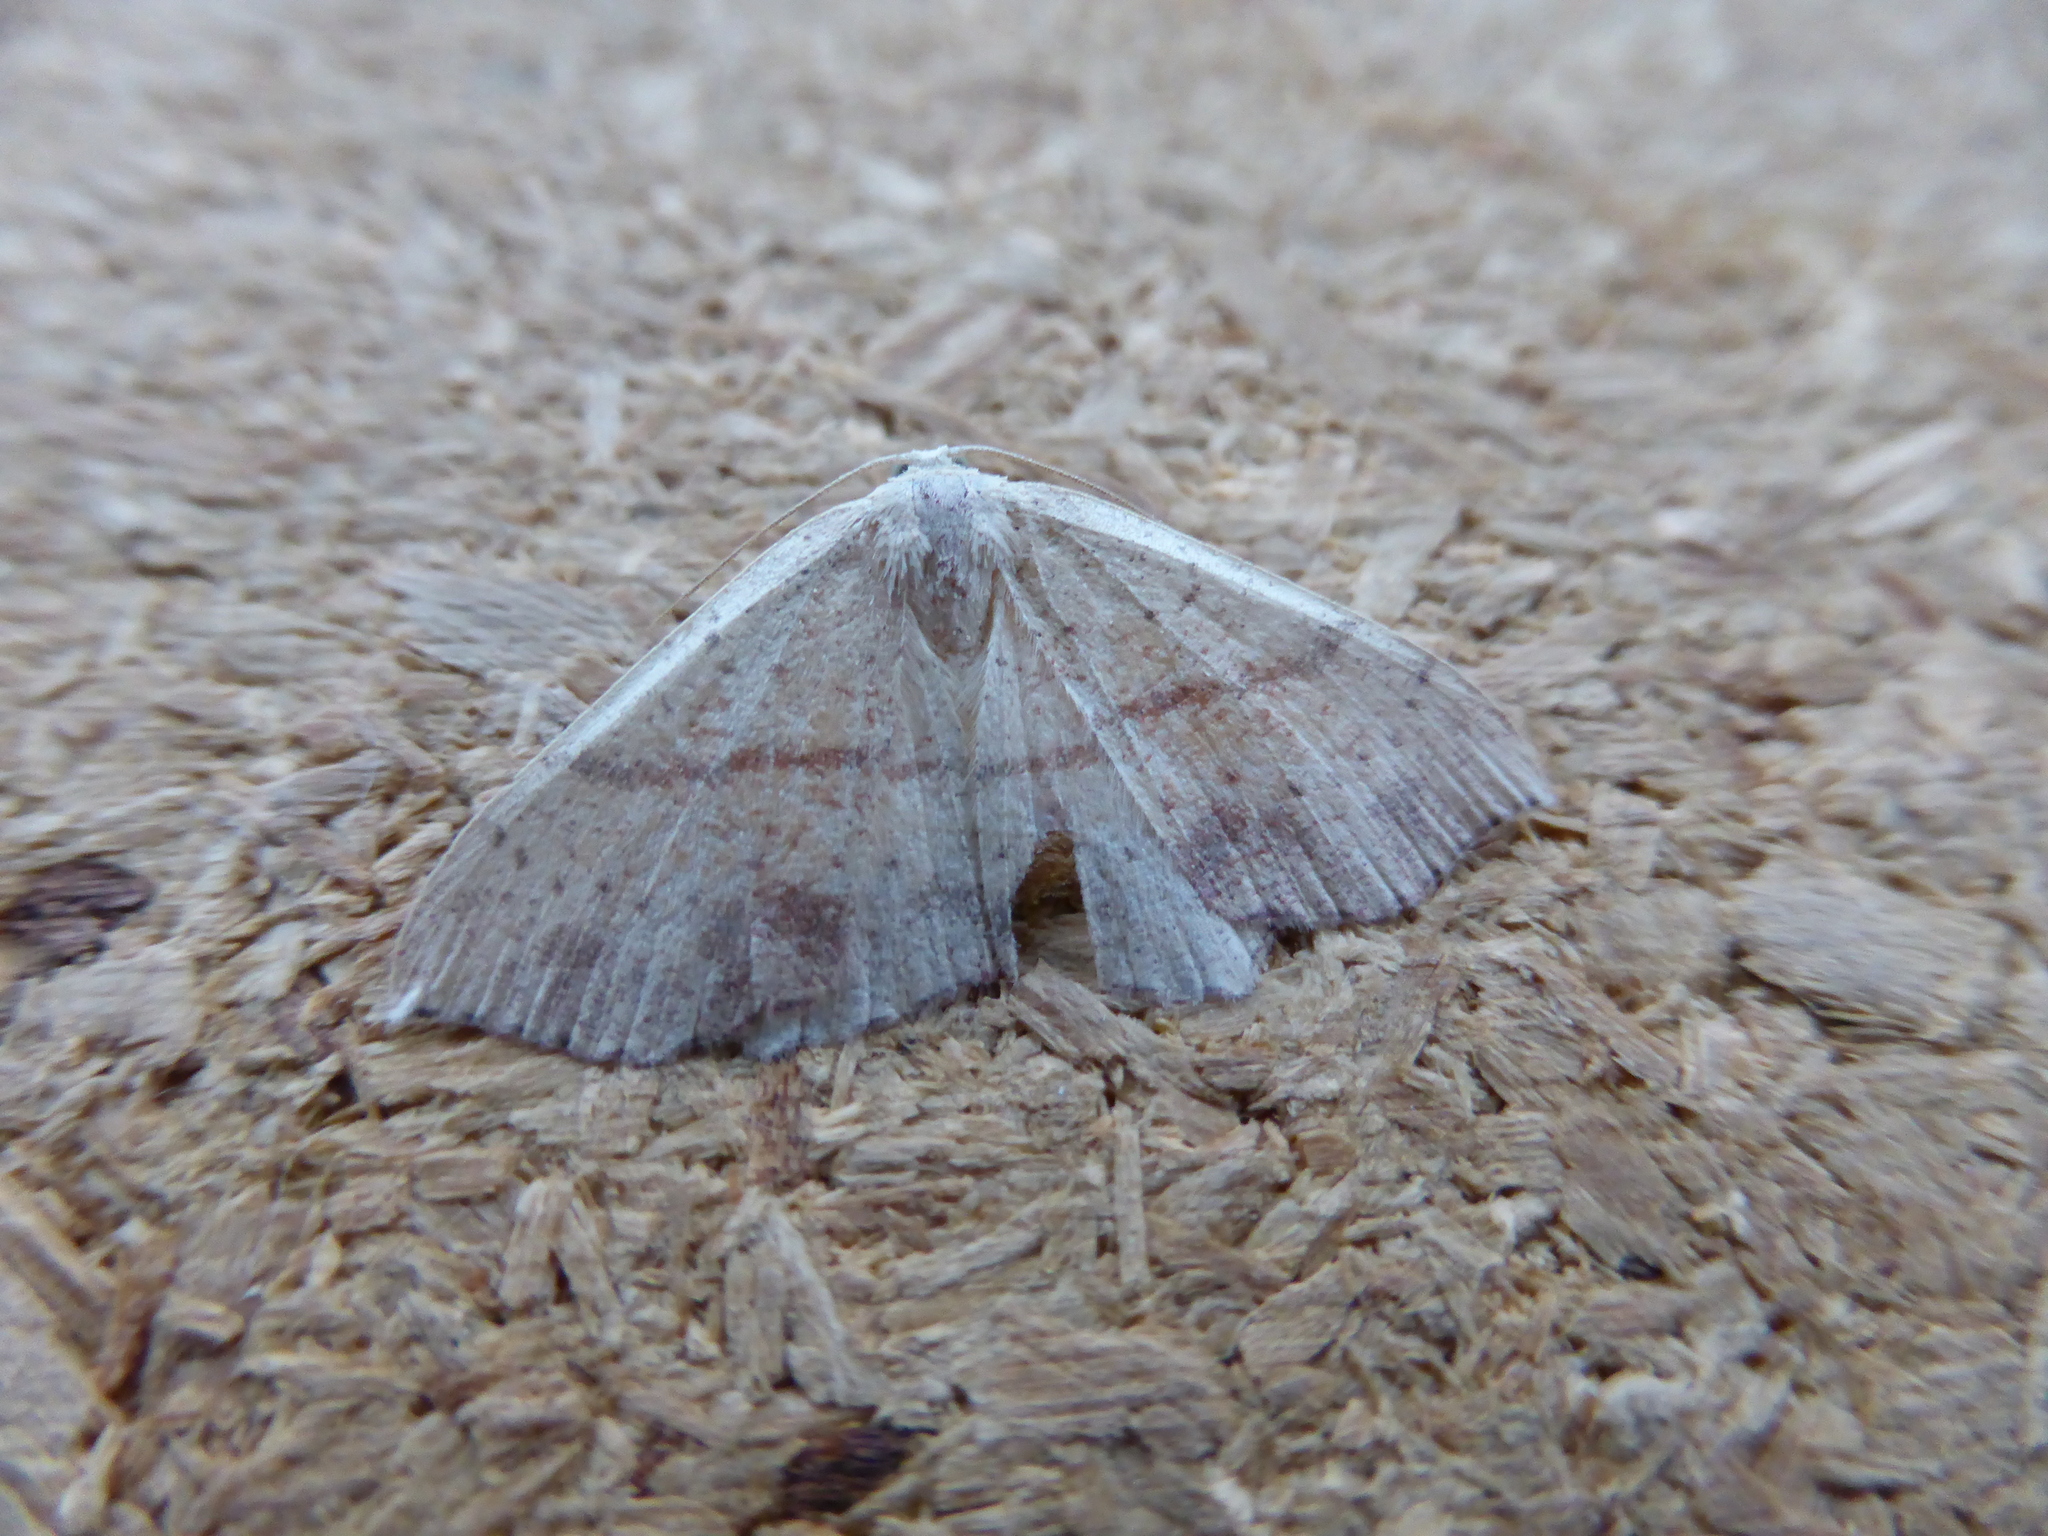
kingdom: Animalia
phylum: Arthropoda
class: Insecta
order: Lepidoptera
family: Geometridae
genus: Cyclophora
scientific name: Cyclophora punctaria
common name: Maiden's blush
